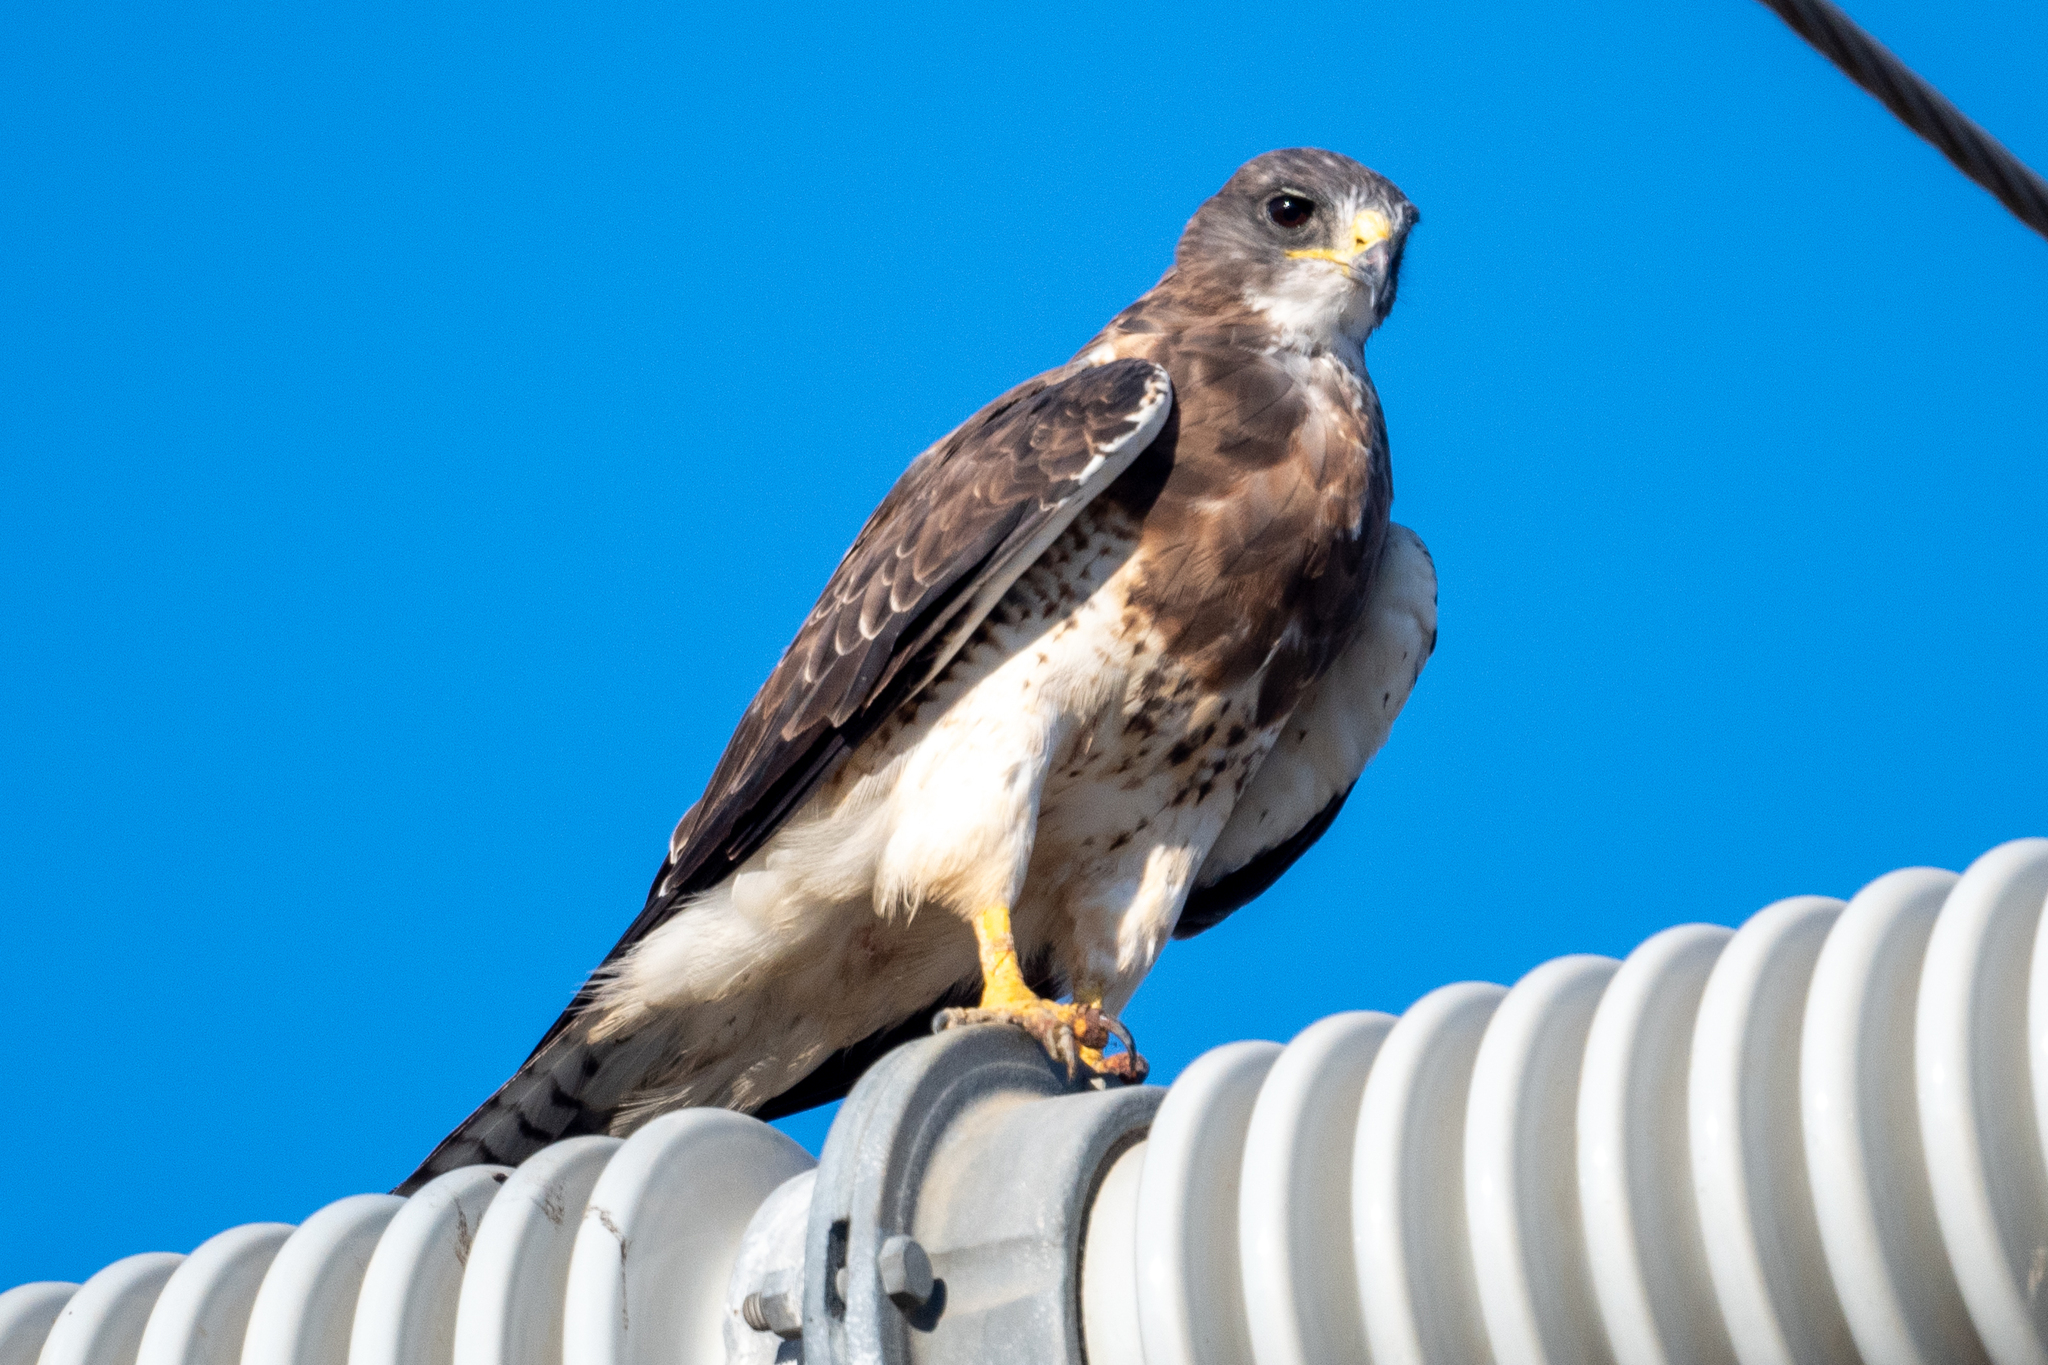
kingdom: Animalia
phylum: Chordata
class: Aves
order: Accipitriformes
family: Accipitridae
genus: Buteo
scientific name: Buteo swainsoni
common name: Swainson's hawk
